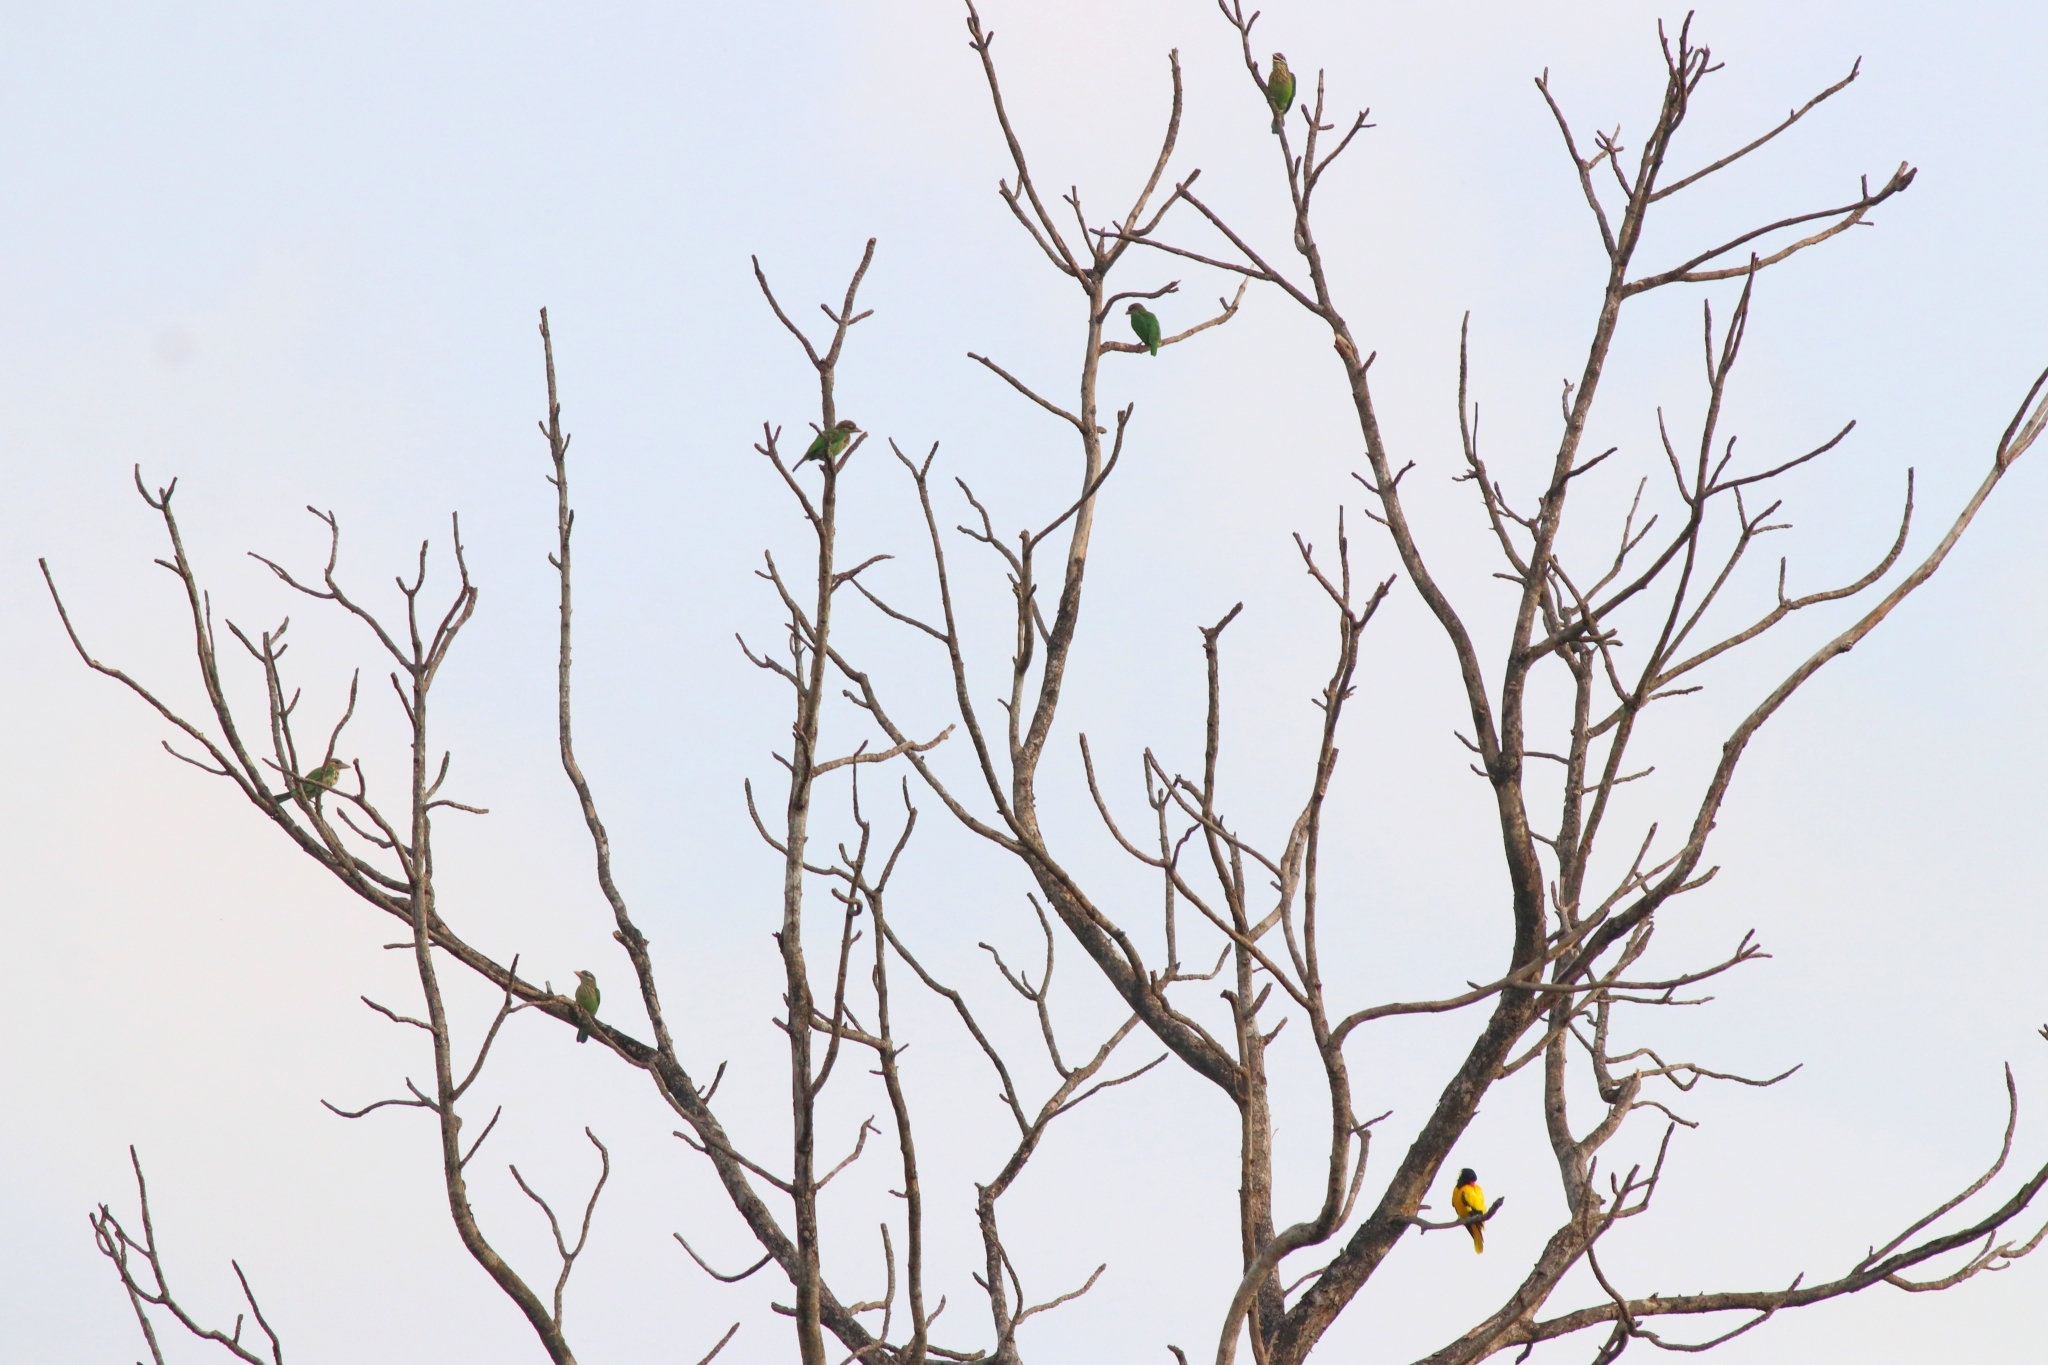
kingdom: Animalia
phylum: Chordata
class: Aves
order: Piciformes
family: Megalaimidae
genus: Psilopogon
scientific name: Psilopogon viridis
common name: White-cheeked barbet
